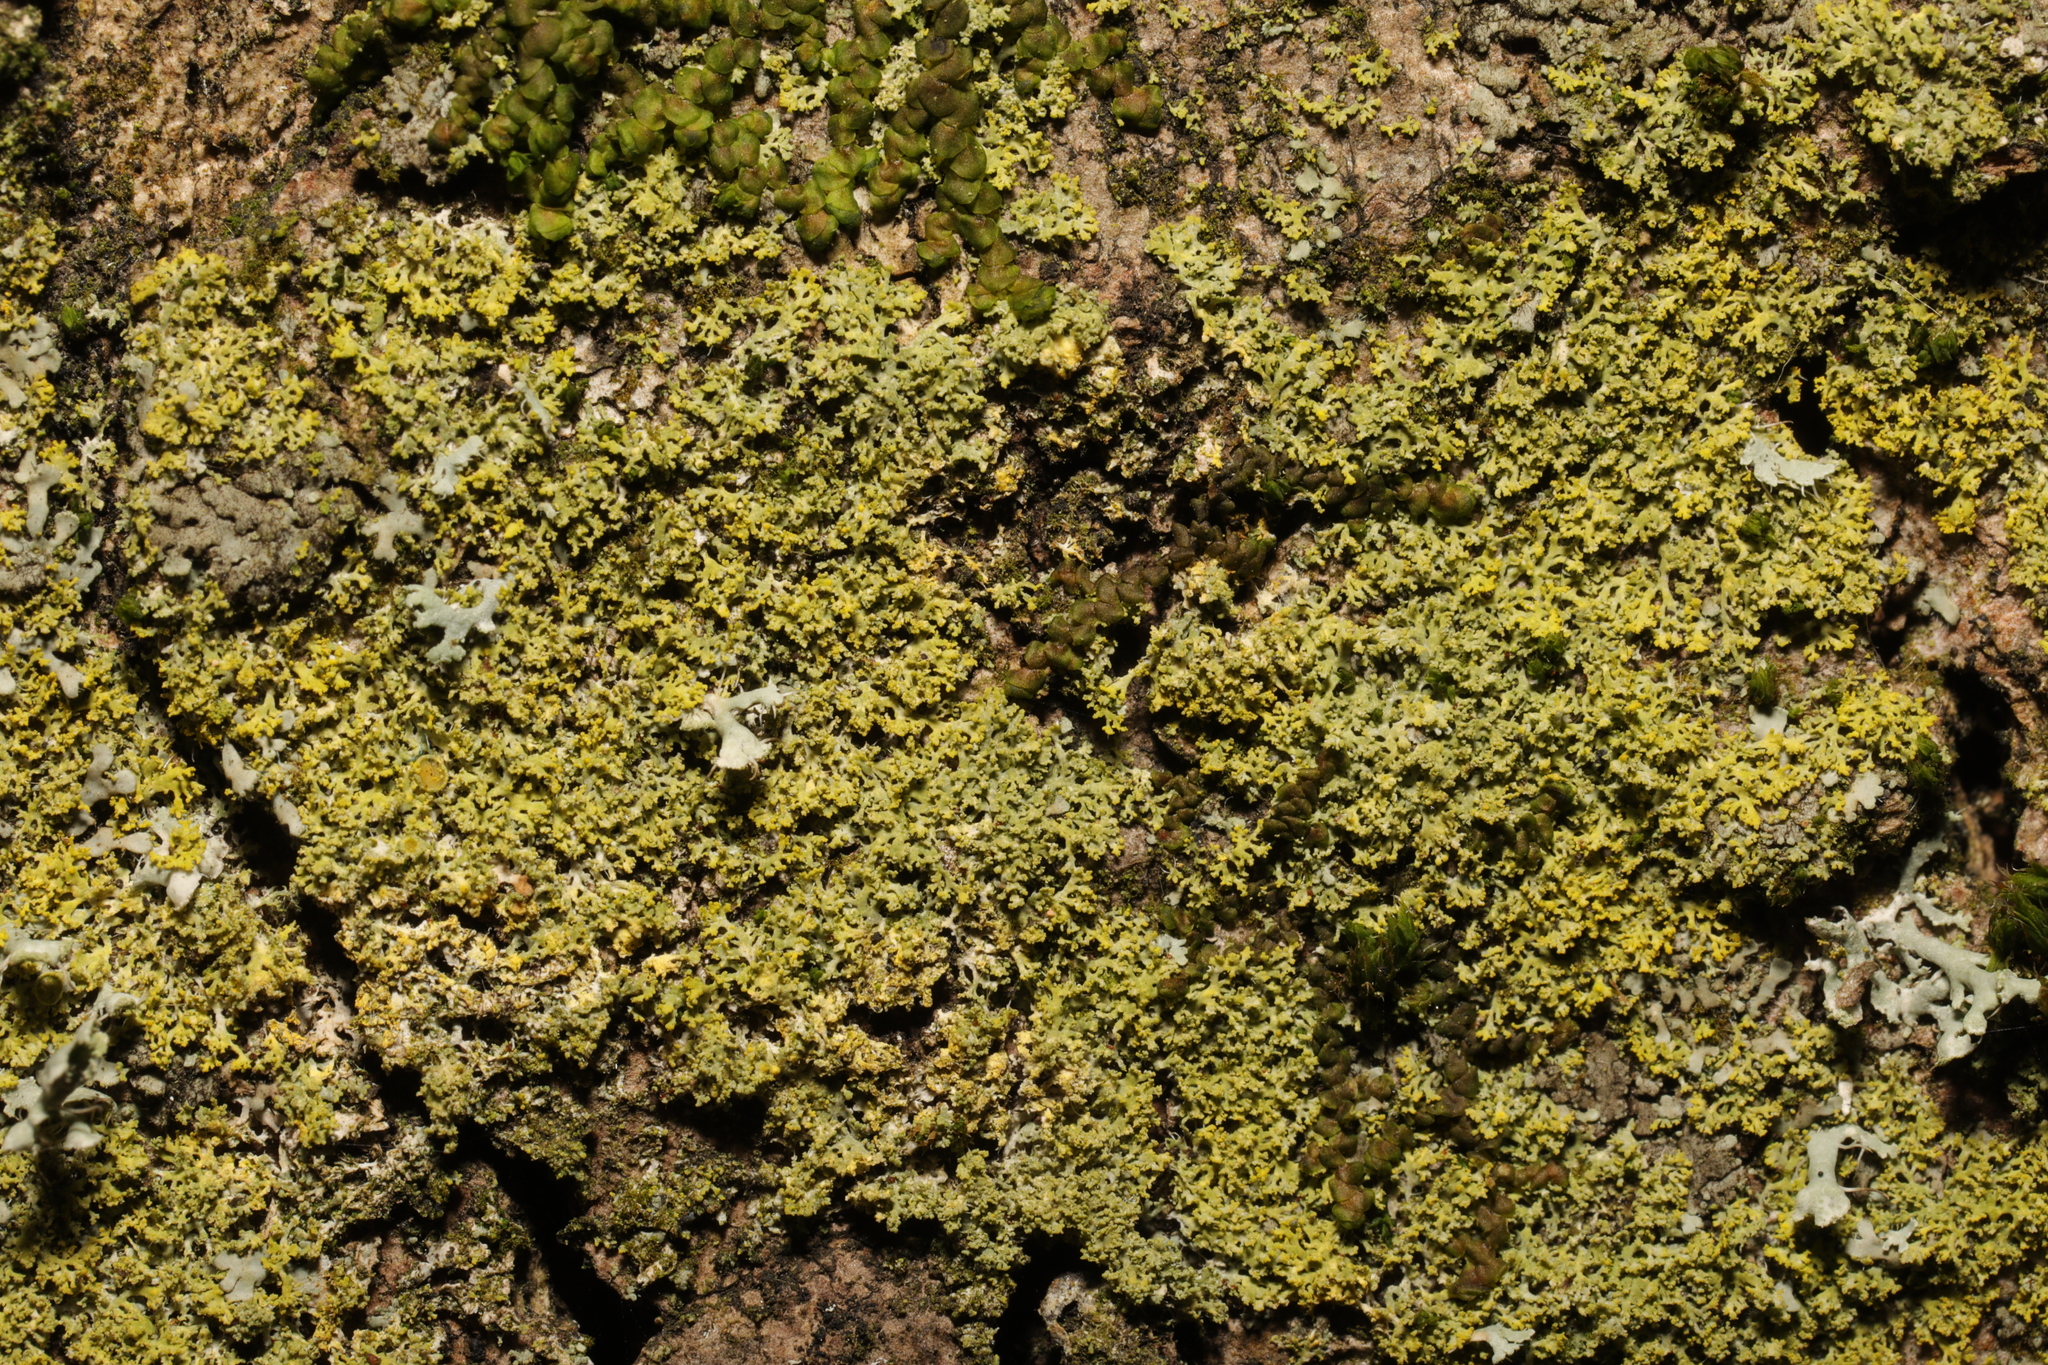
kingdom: Fungi
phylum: Ascomycota
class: Candelariomycetes
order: Candelariales
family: Candelariaceae
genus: Candelaria
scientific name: Candelaria concolor
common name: Candleflame lichen
